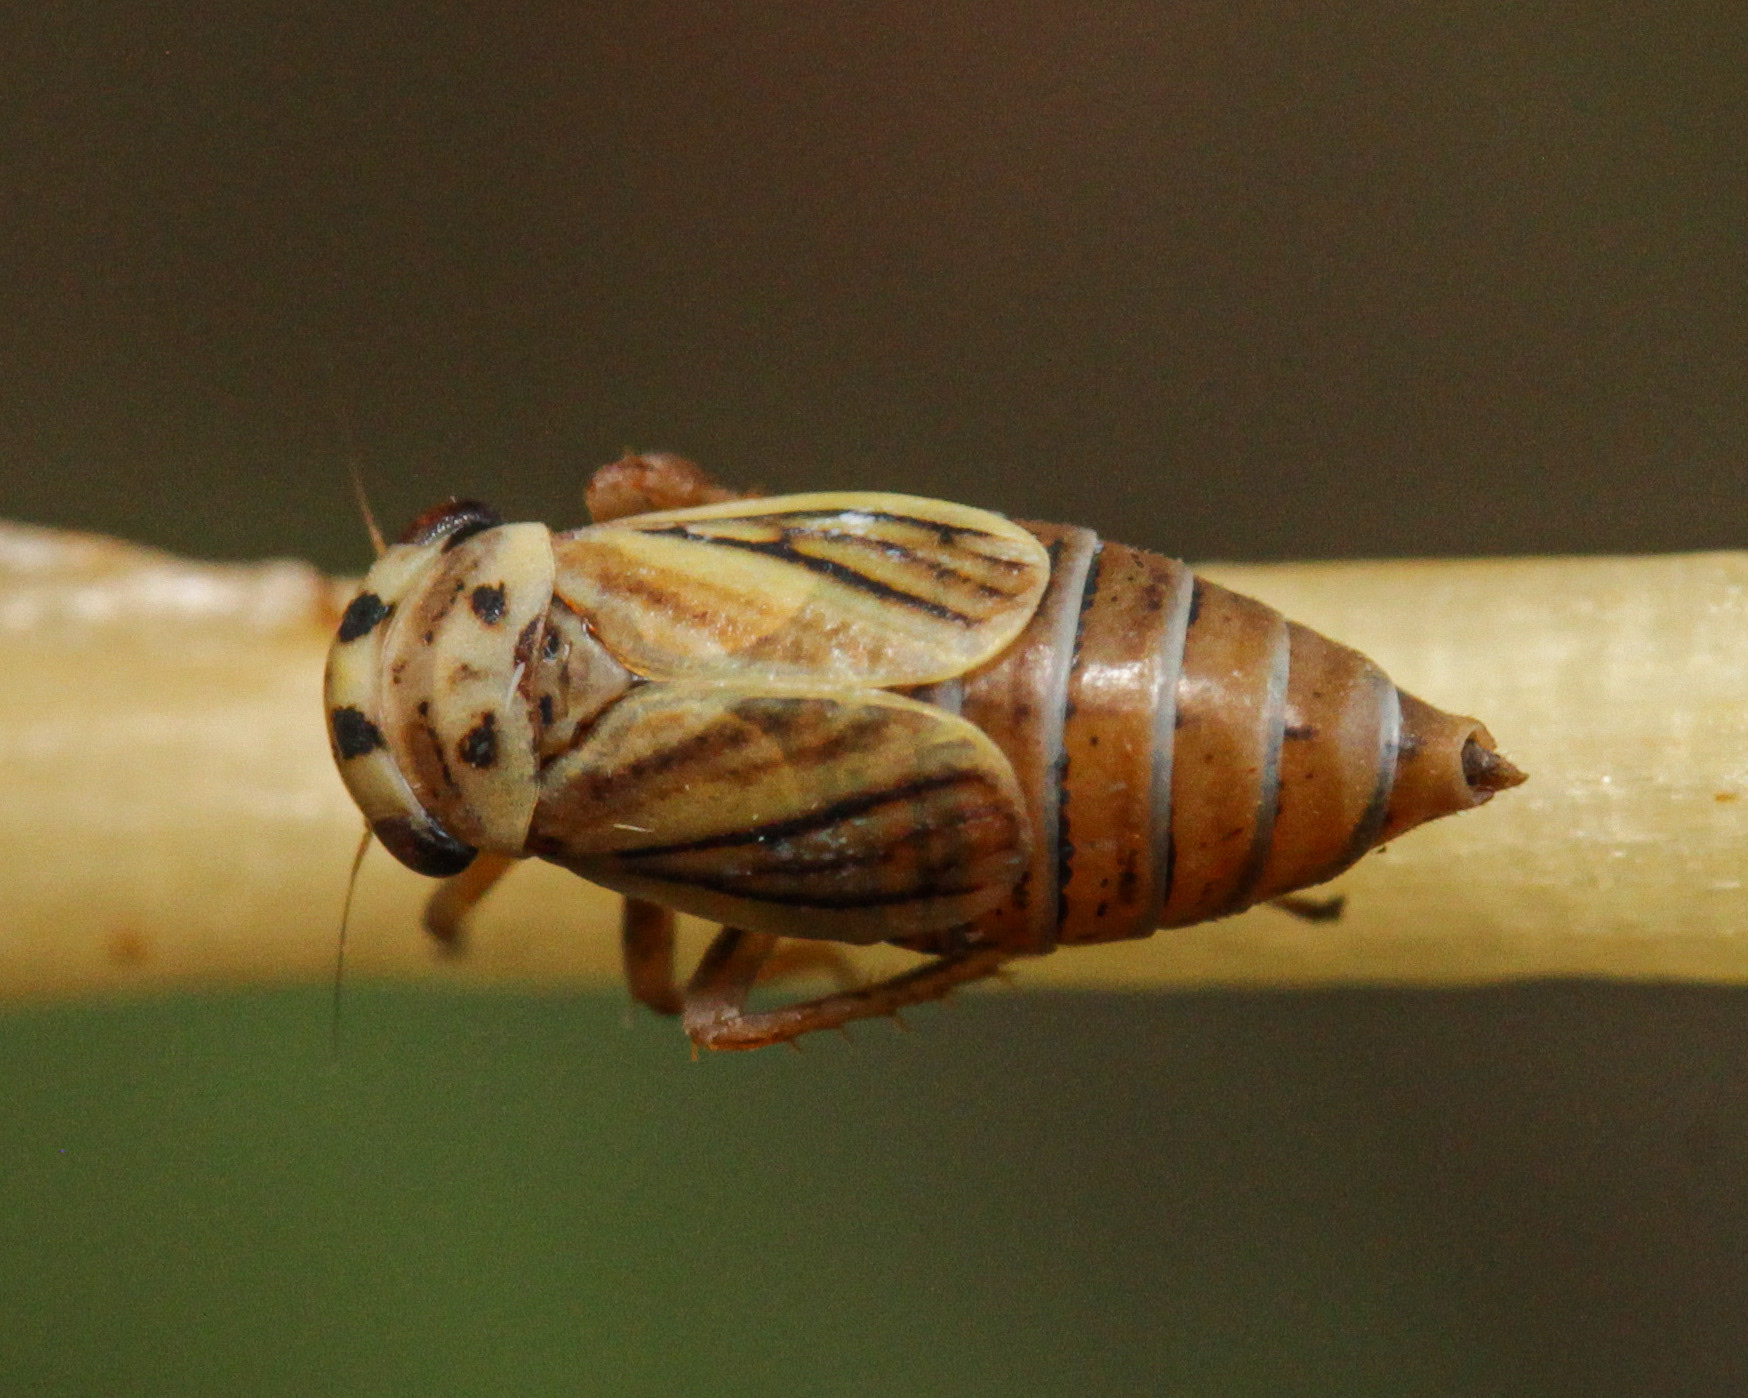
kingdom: Animalia
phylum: Arthropoda
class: Insecta
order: Hemiptera
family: Cicadellidae
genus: Indiagallia
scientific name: Indiagallia limbata
